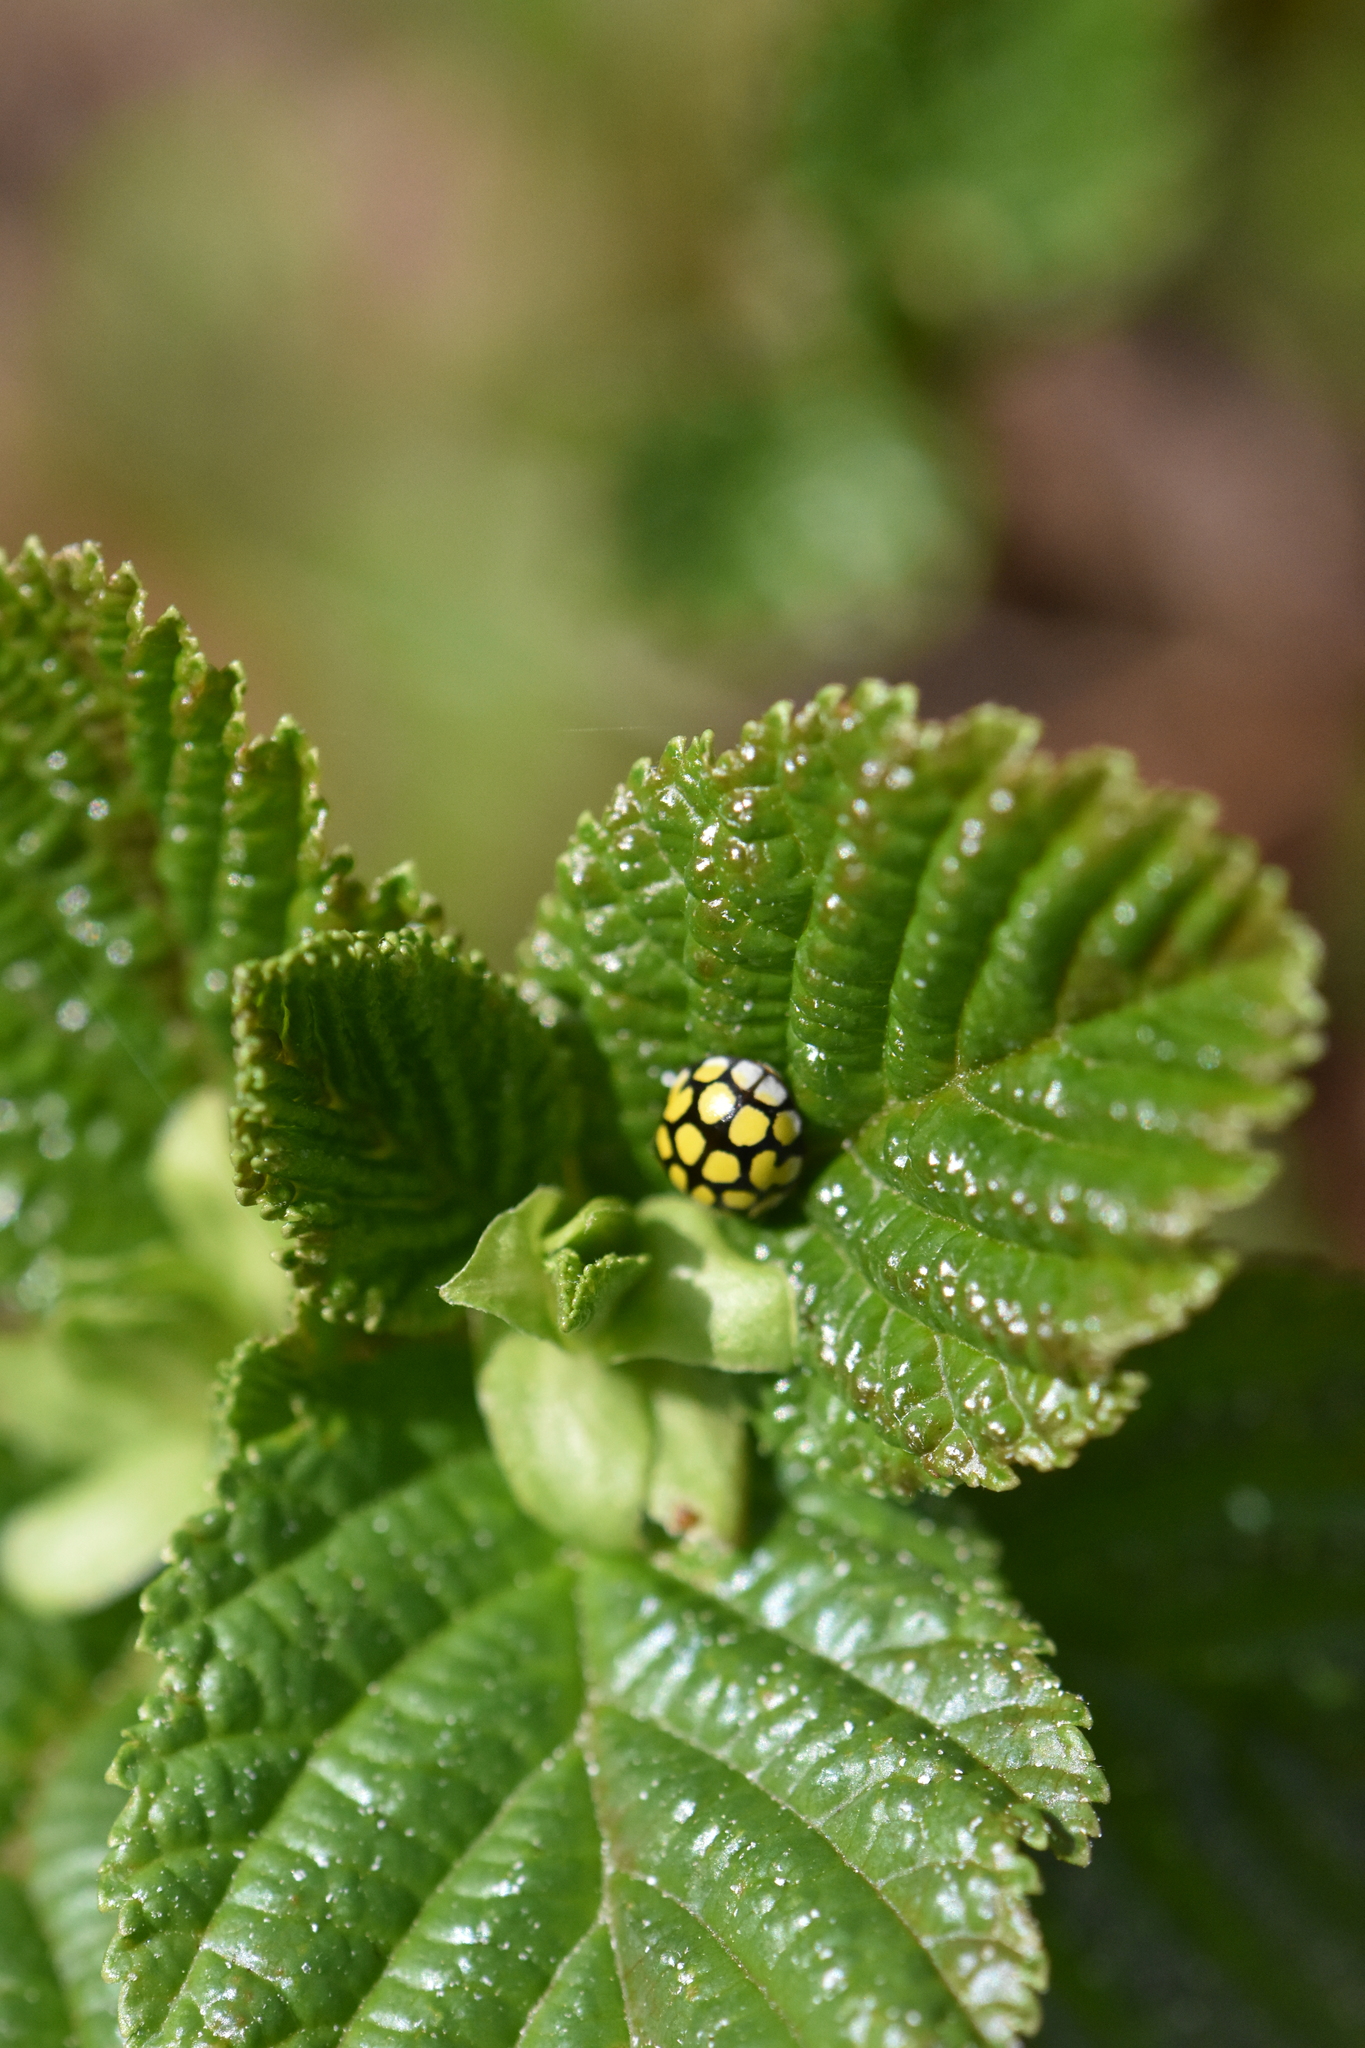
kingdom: Animalia
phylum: Arthropoda
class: Insecta
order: Coleoptera
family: Coccinellidae
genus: Sospita
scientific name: Sospita vigintiguttata
